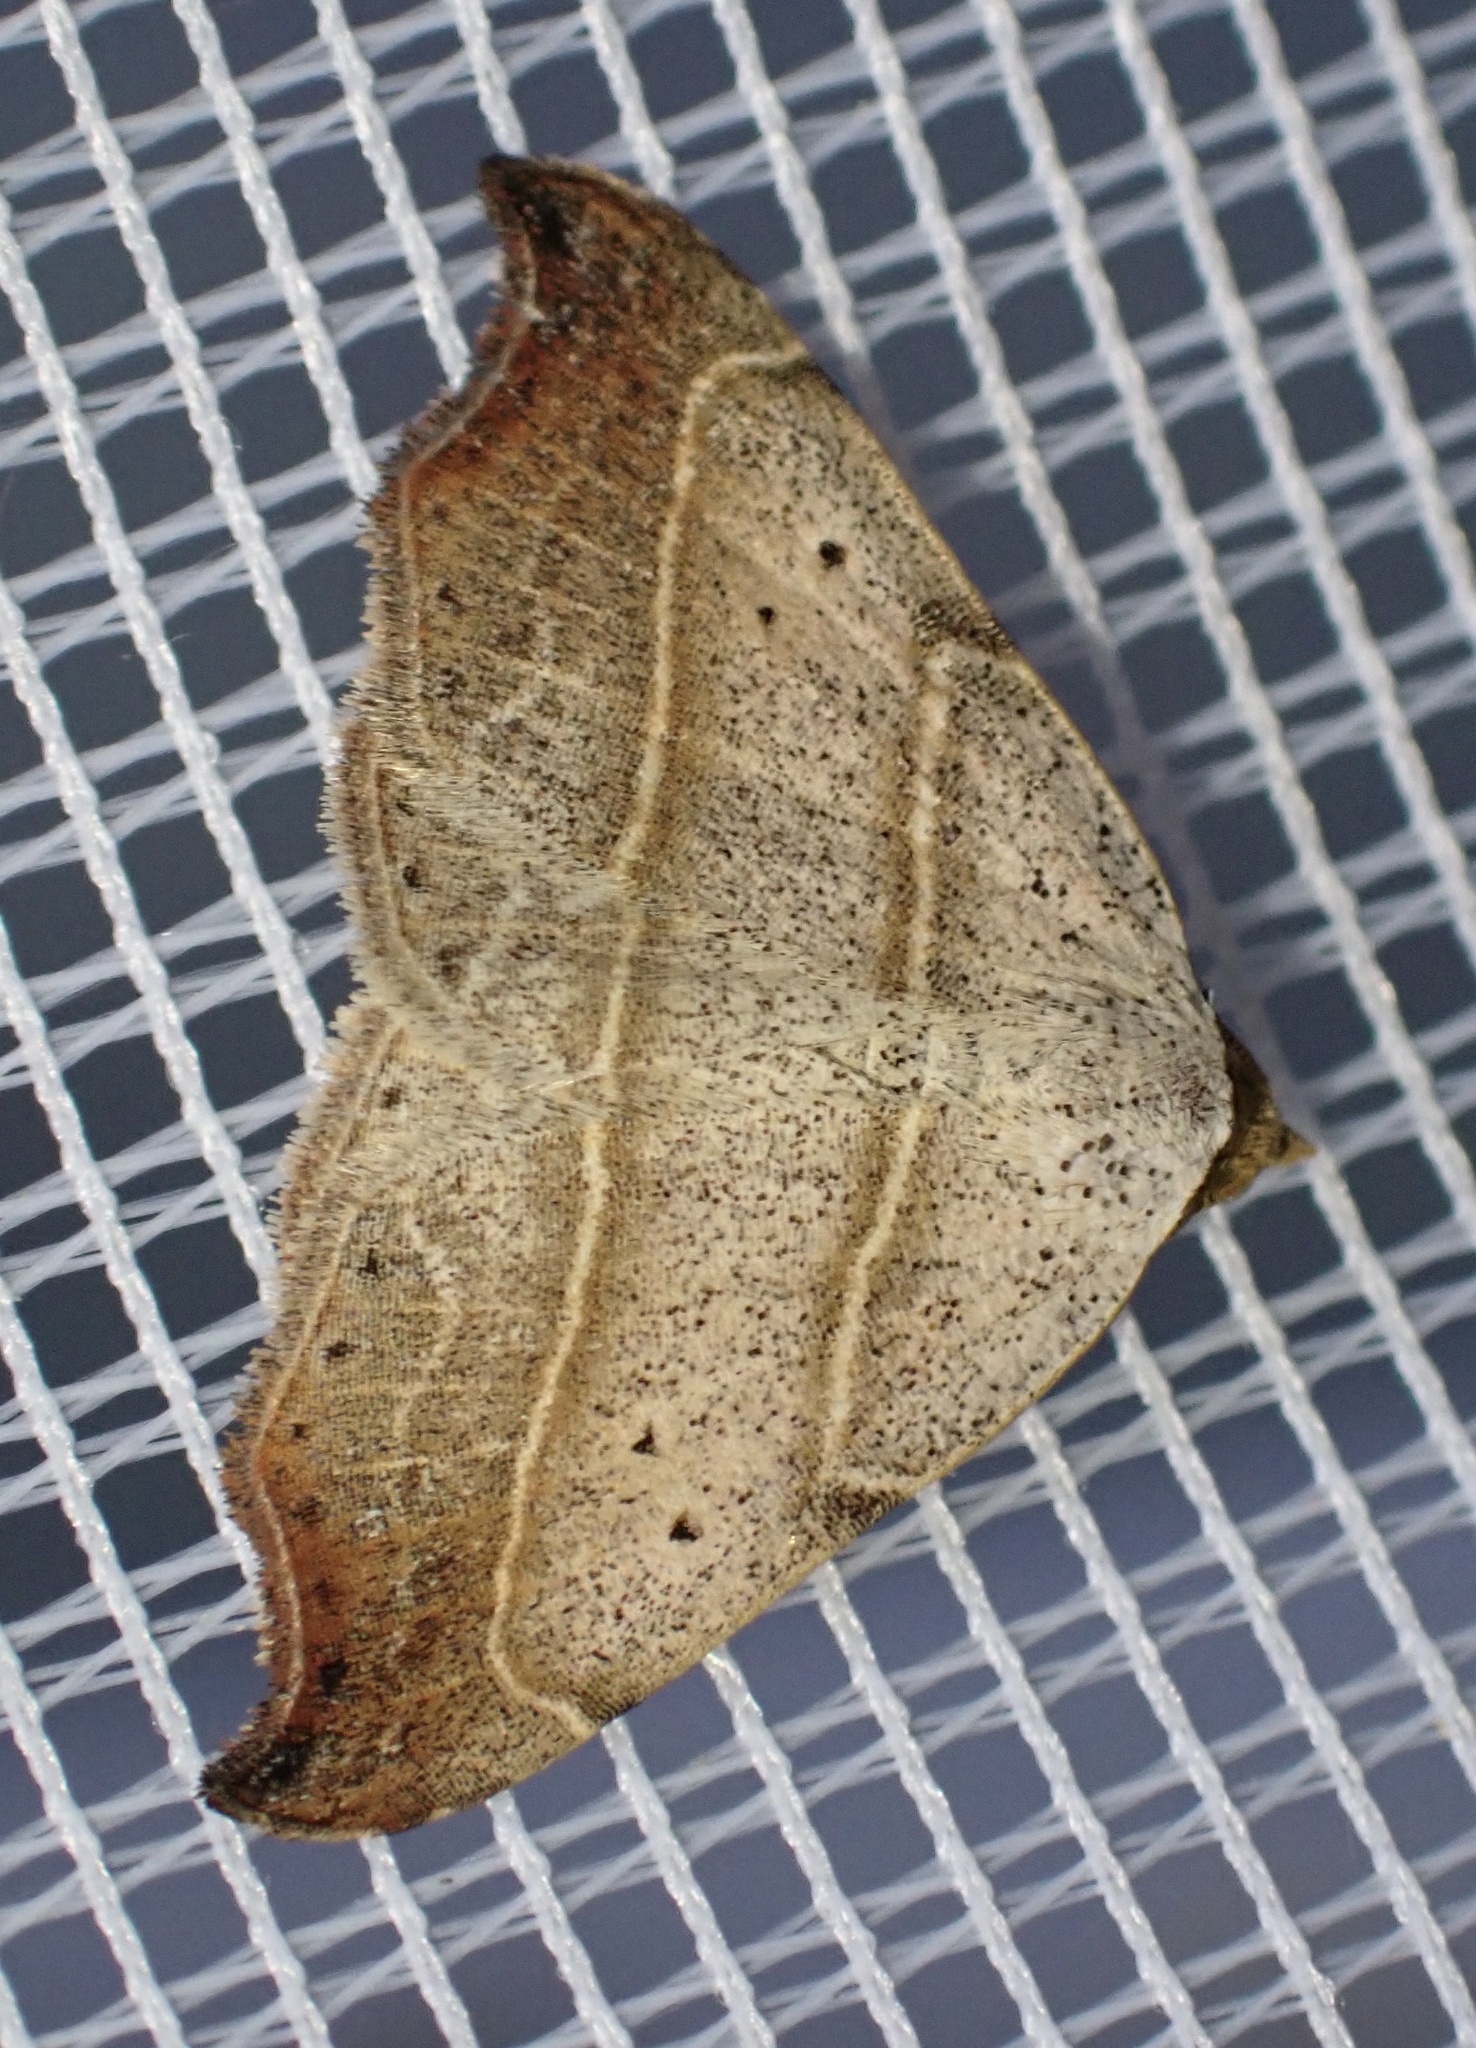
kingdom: Animalia
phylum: Arthropoda
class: Insecta
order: Lepidoptera
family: Erebidae
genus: Laspeyria
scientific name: Laspeyria flexula
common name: Beautiful hook-tip
